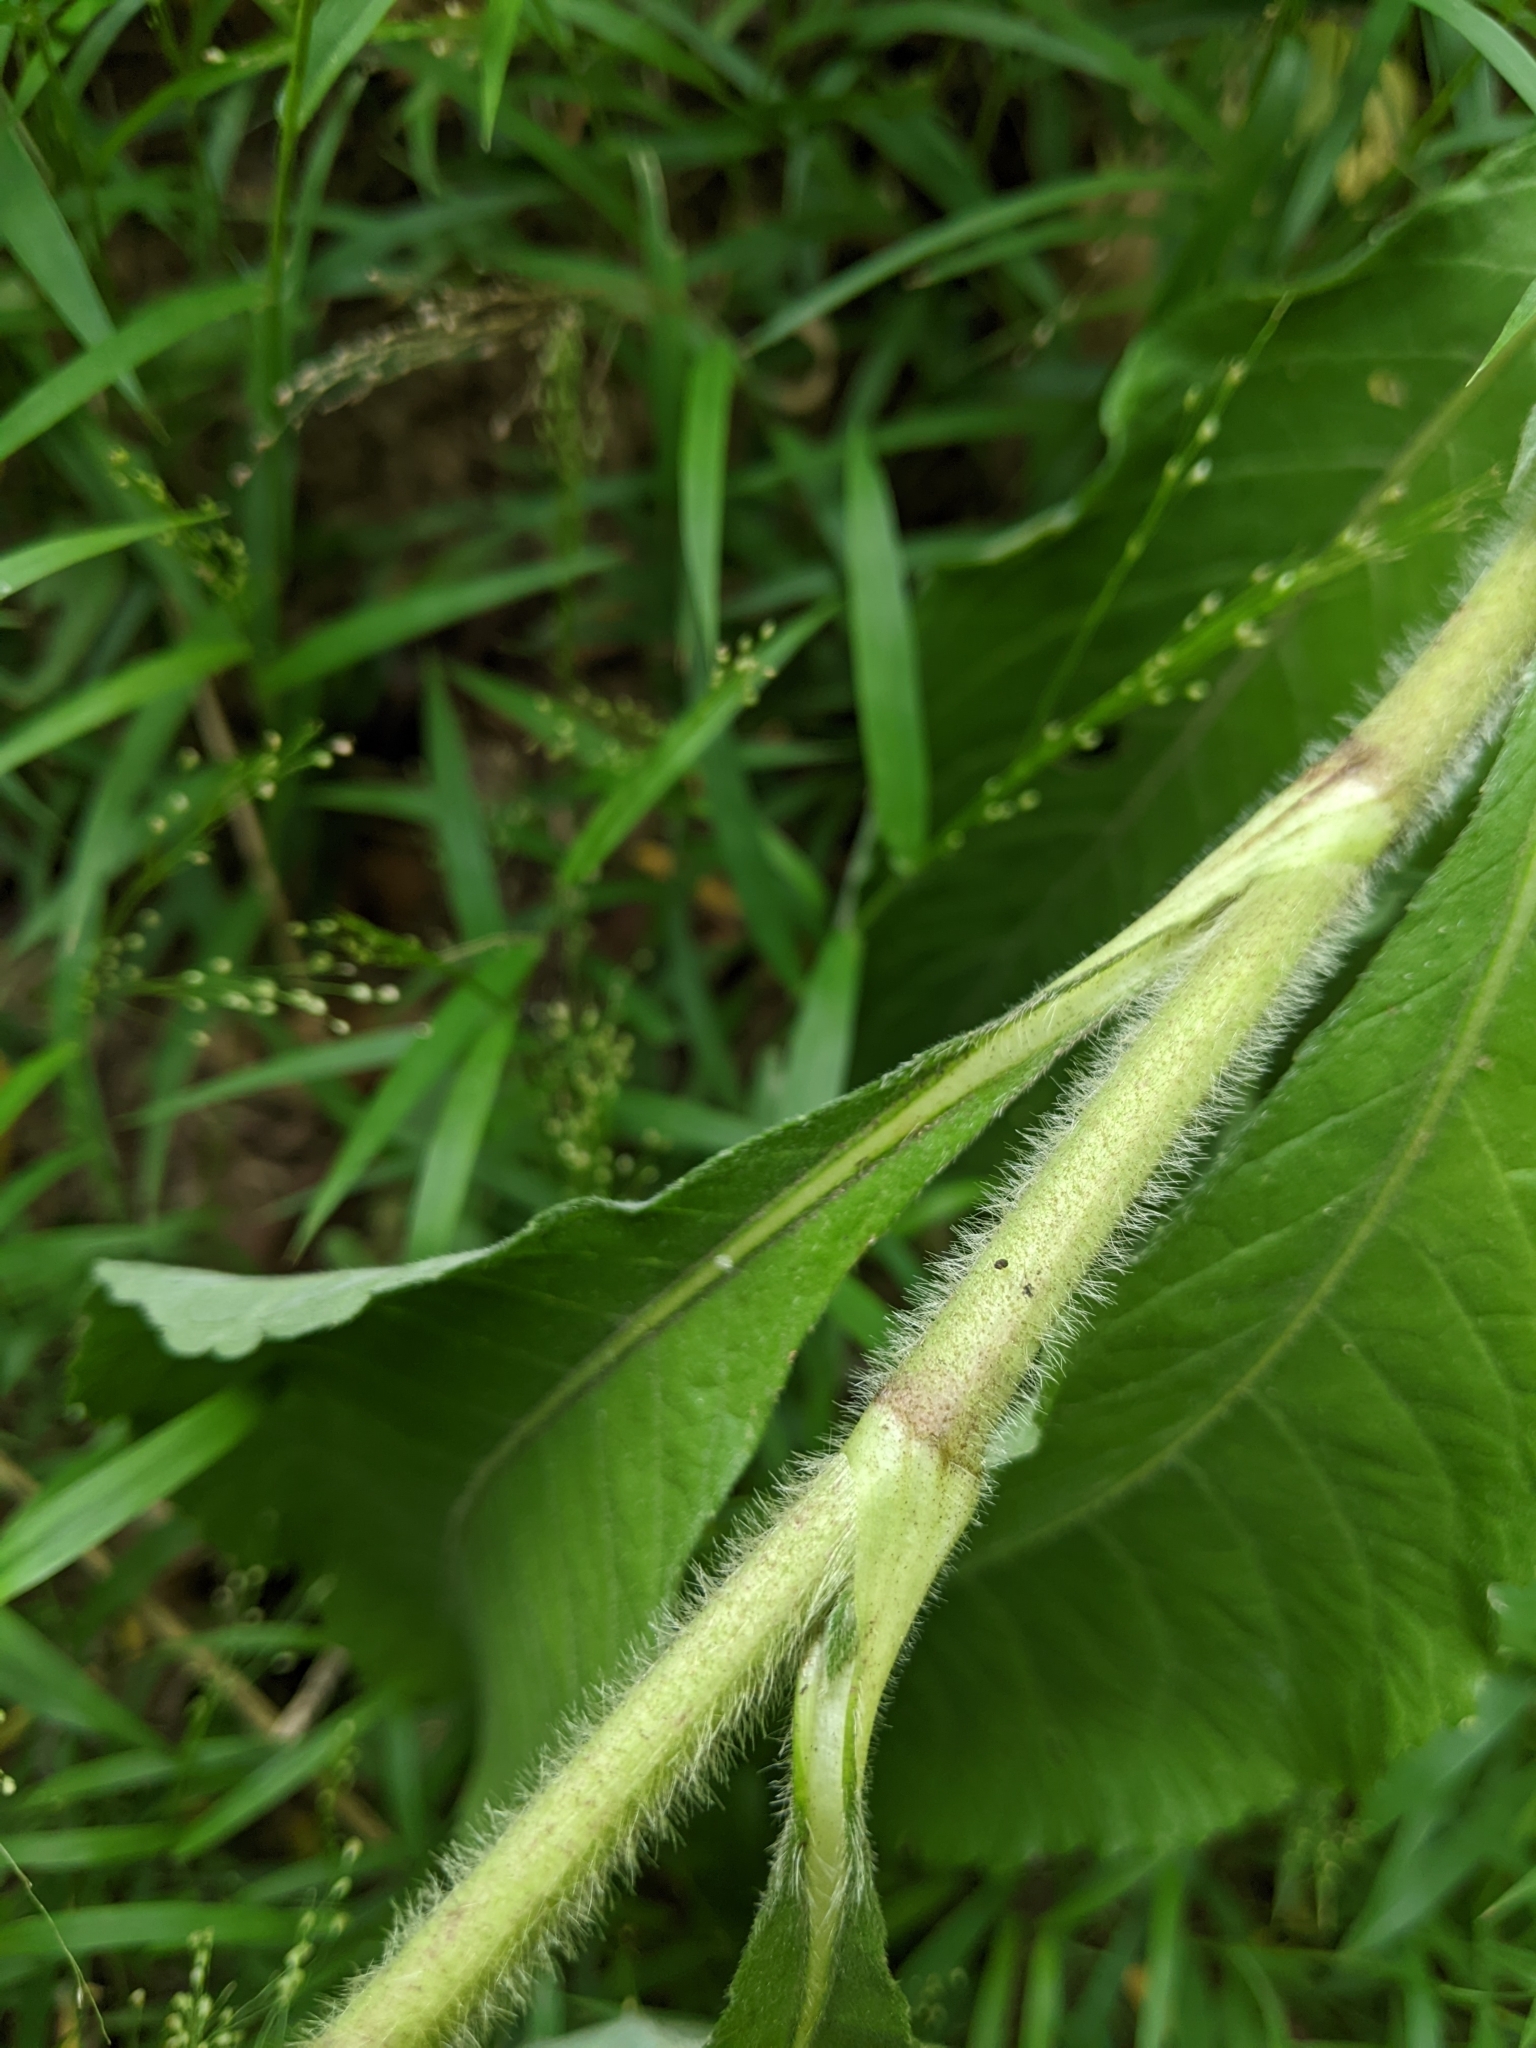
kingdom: Plantae
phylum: Tracheophyta
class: Magnoliopsida
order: Asterales
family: Asteraceae
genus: Elephantopus
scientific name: Elephantopus mollis
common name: Soft elephantsfoot
